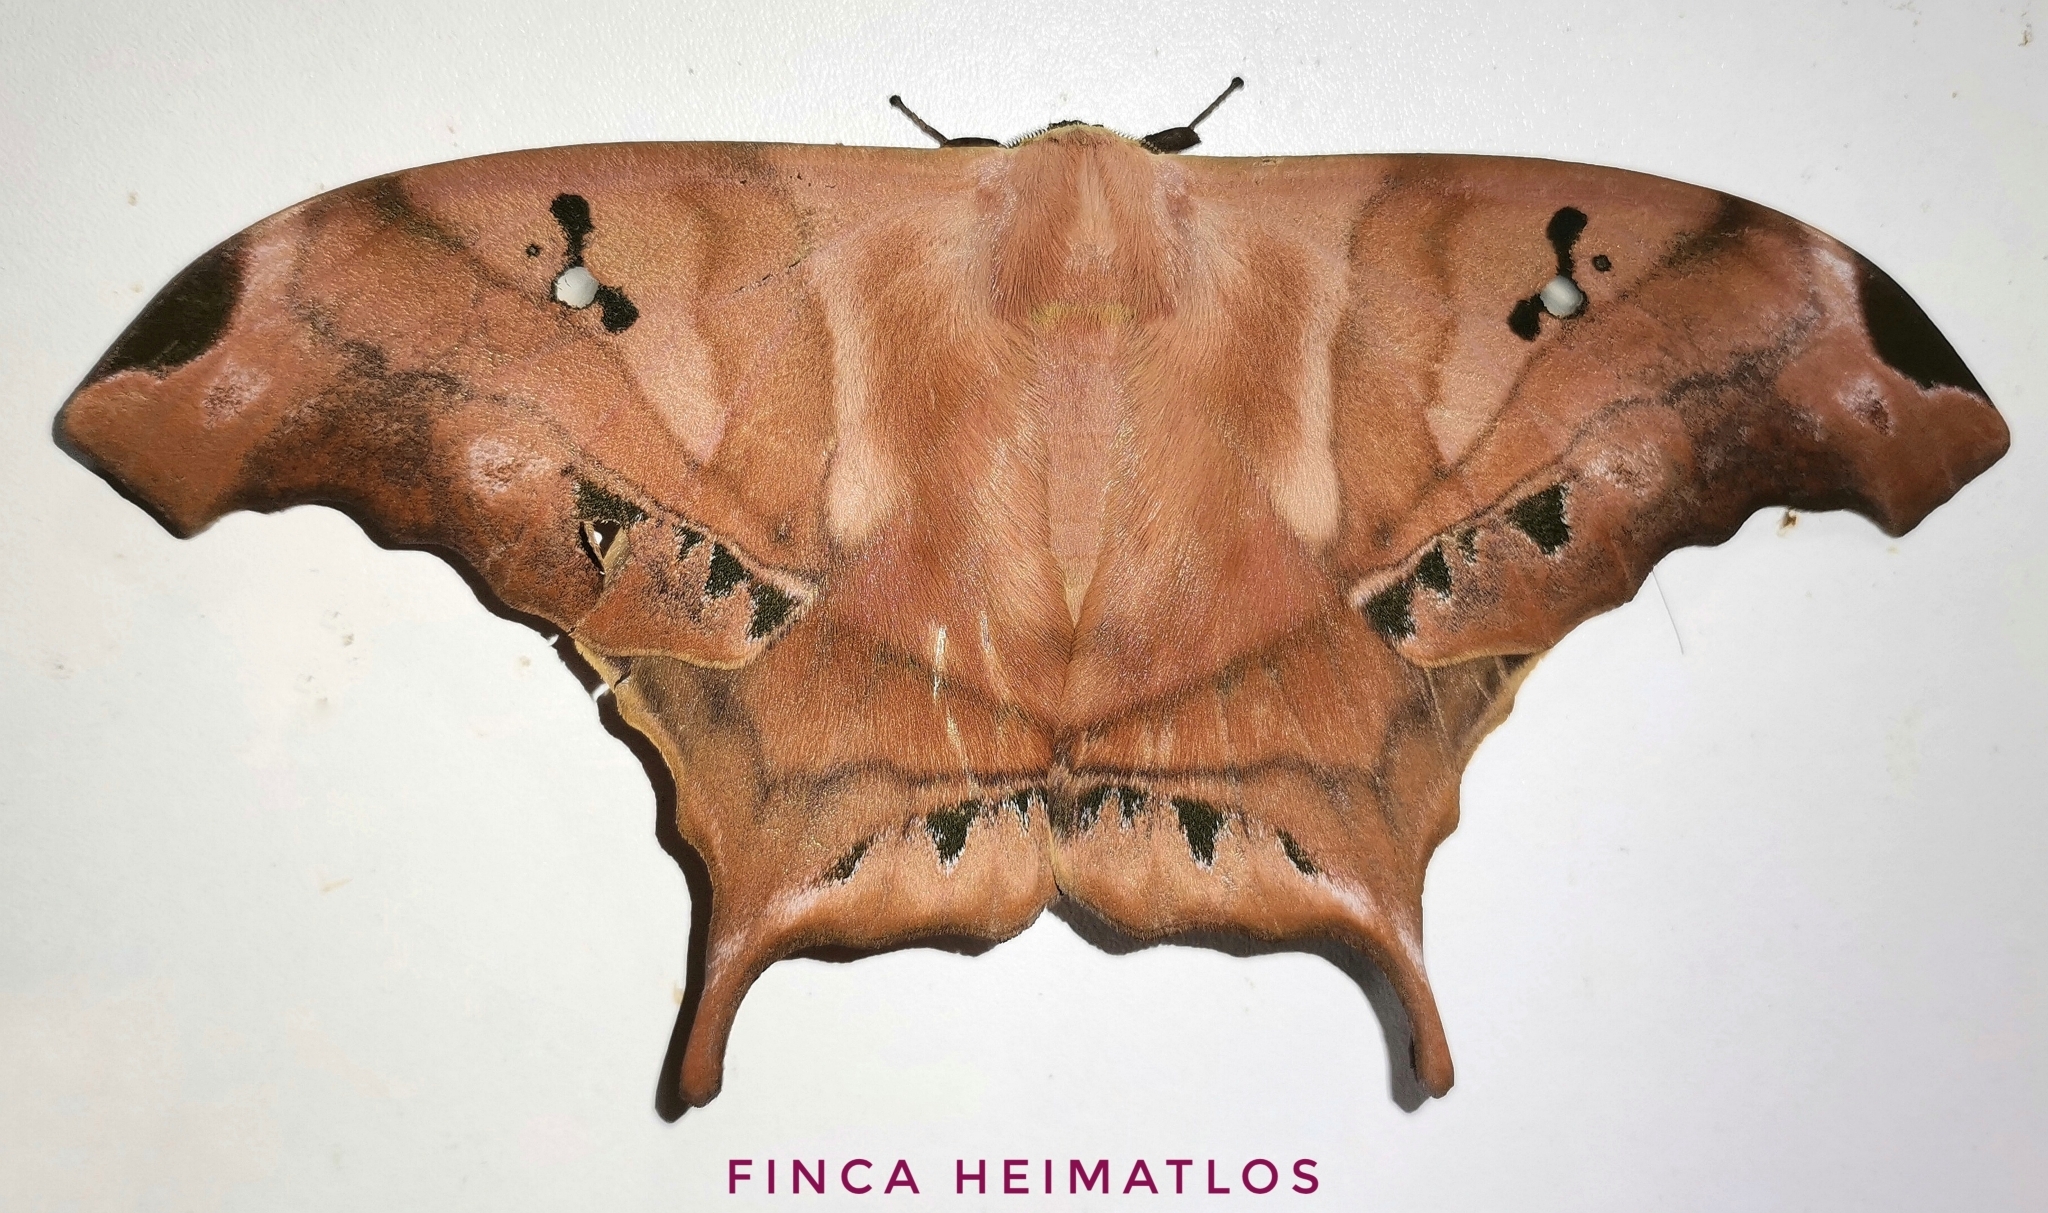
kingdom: Animalia
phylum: Arthropoda
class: Insecta
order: Lepidoptera
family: Saturniidae
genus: Titaea
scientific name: Titaea tamerlan
